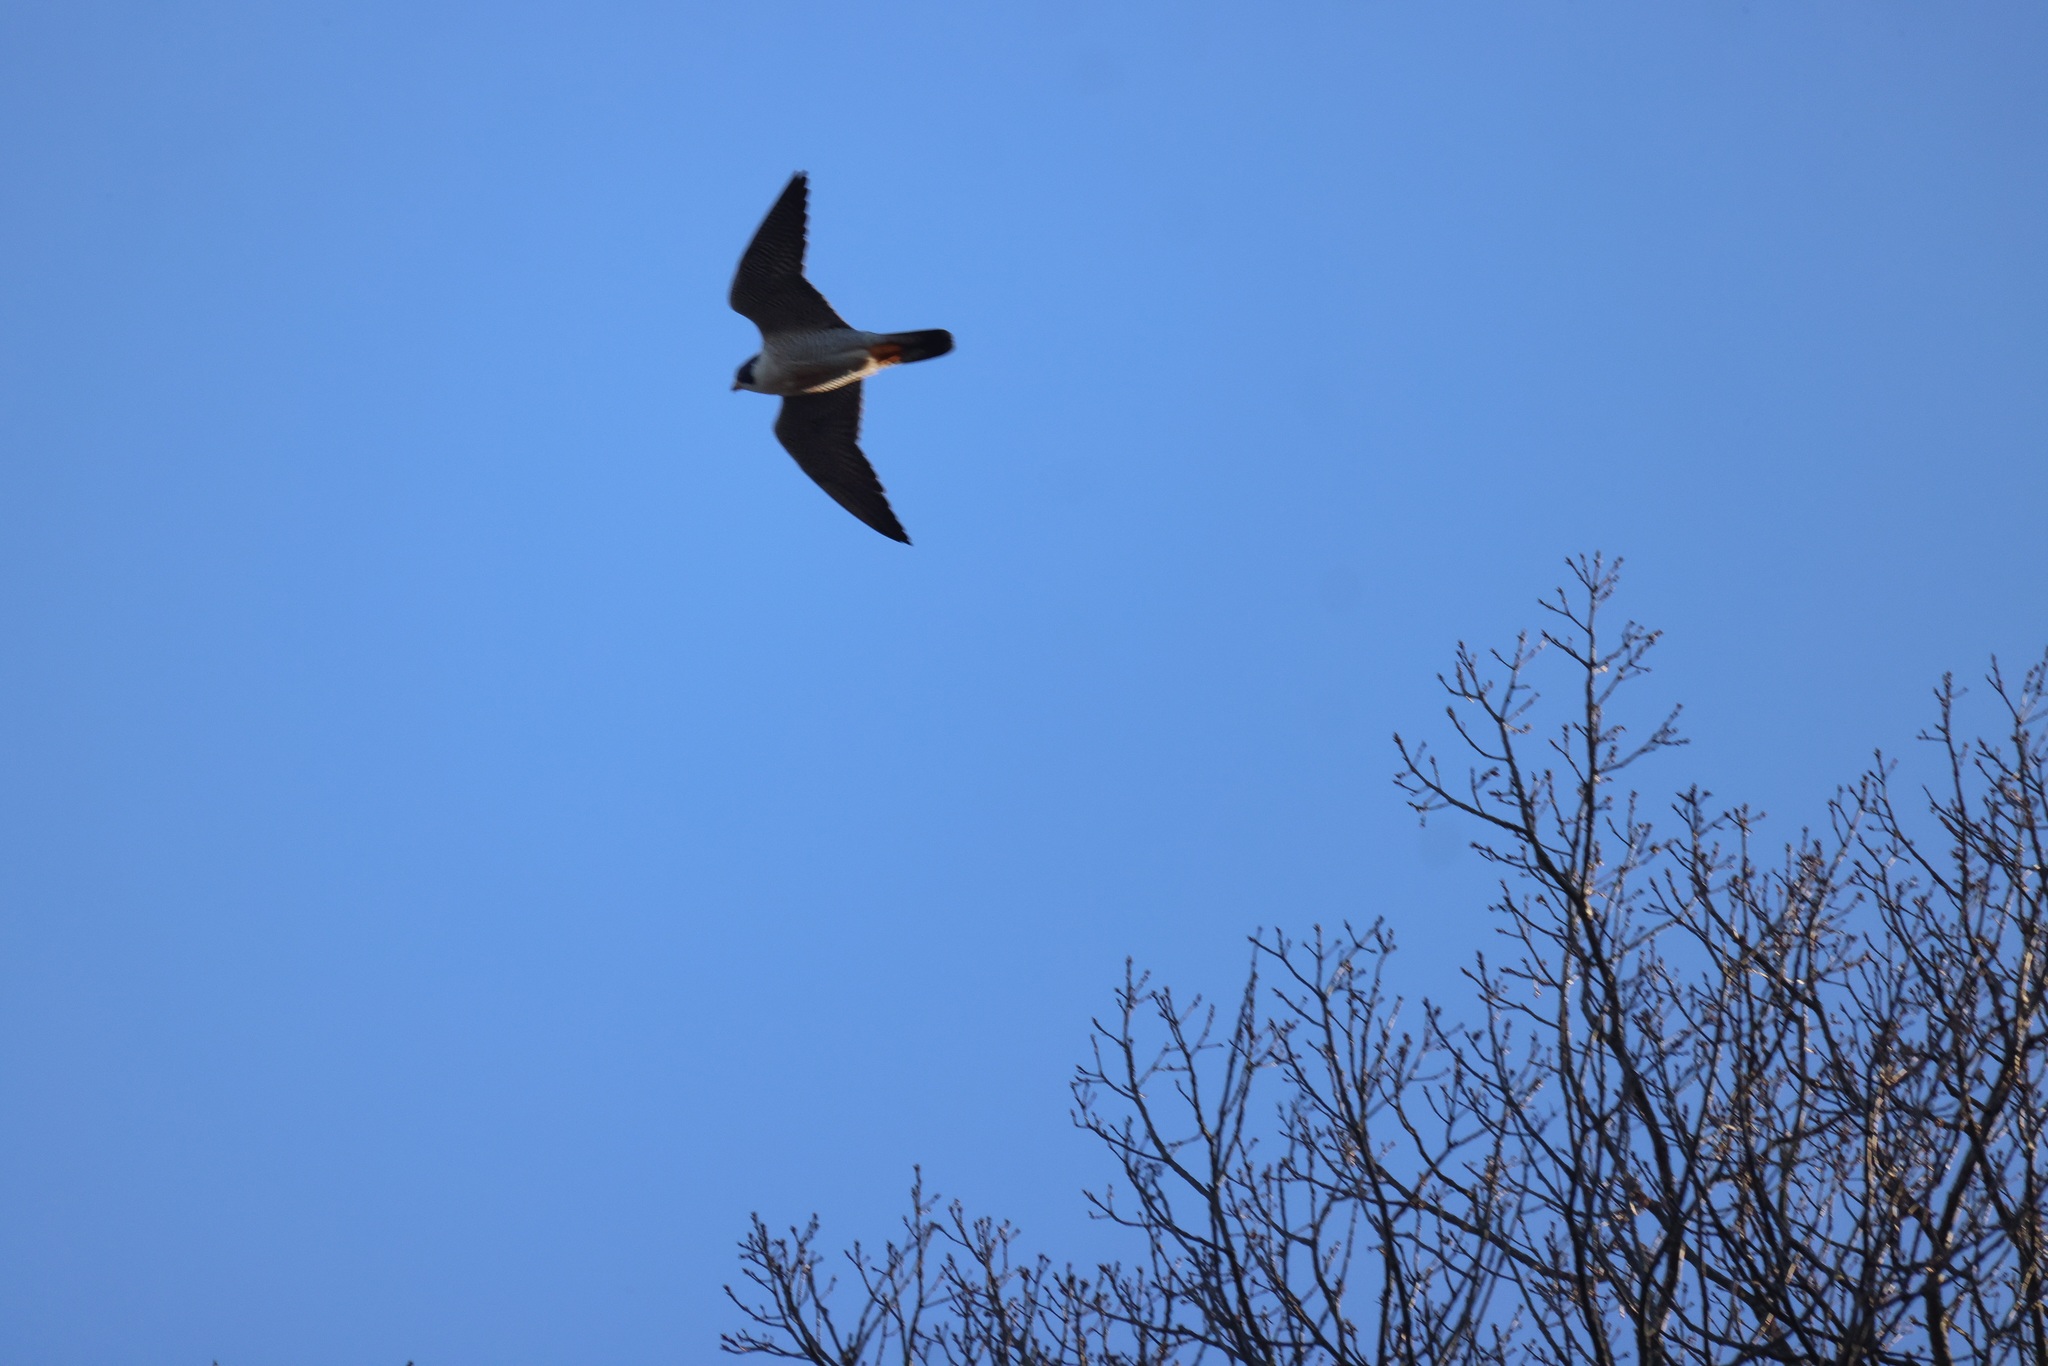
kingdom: Animalia
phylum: Chordata
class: Aves
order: Falconiformes
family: Falconidae
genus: Falco
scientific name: Falco peregrinus
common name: Peregrine falcon
